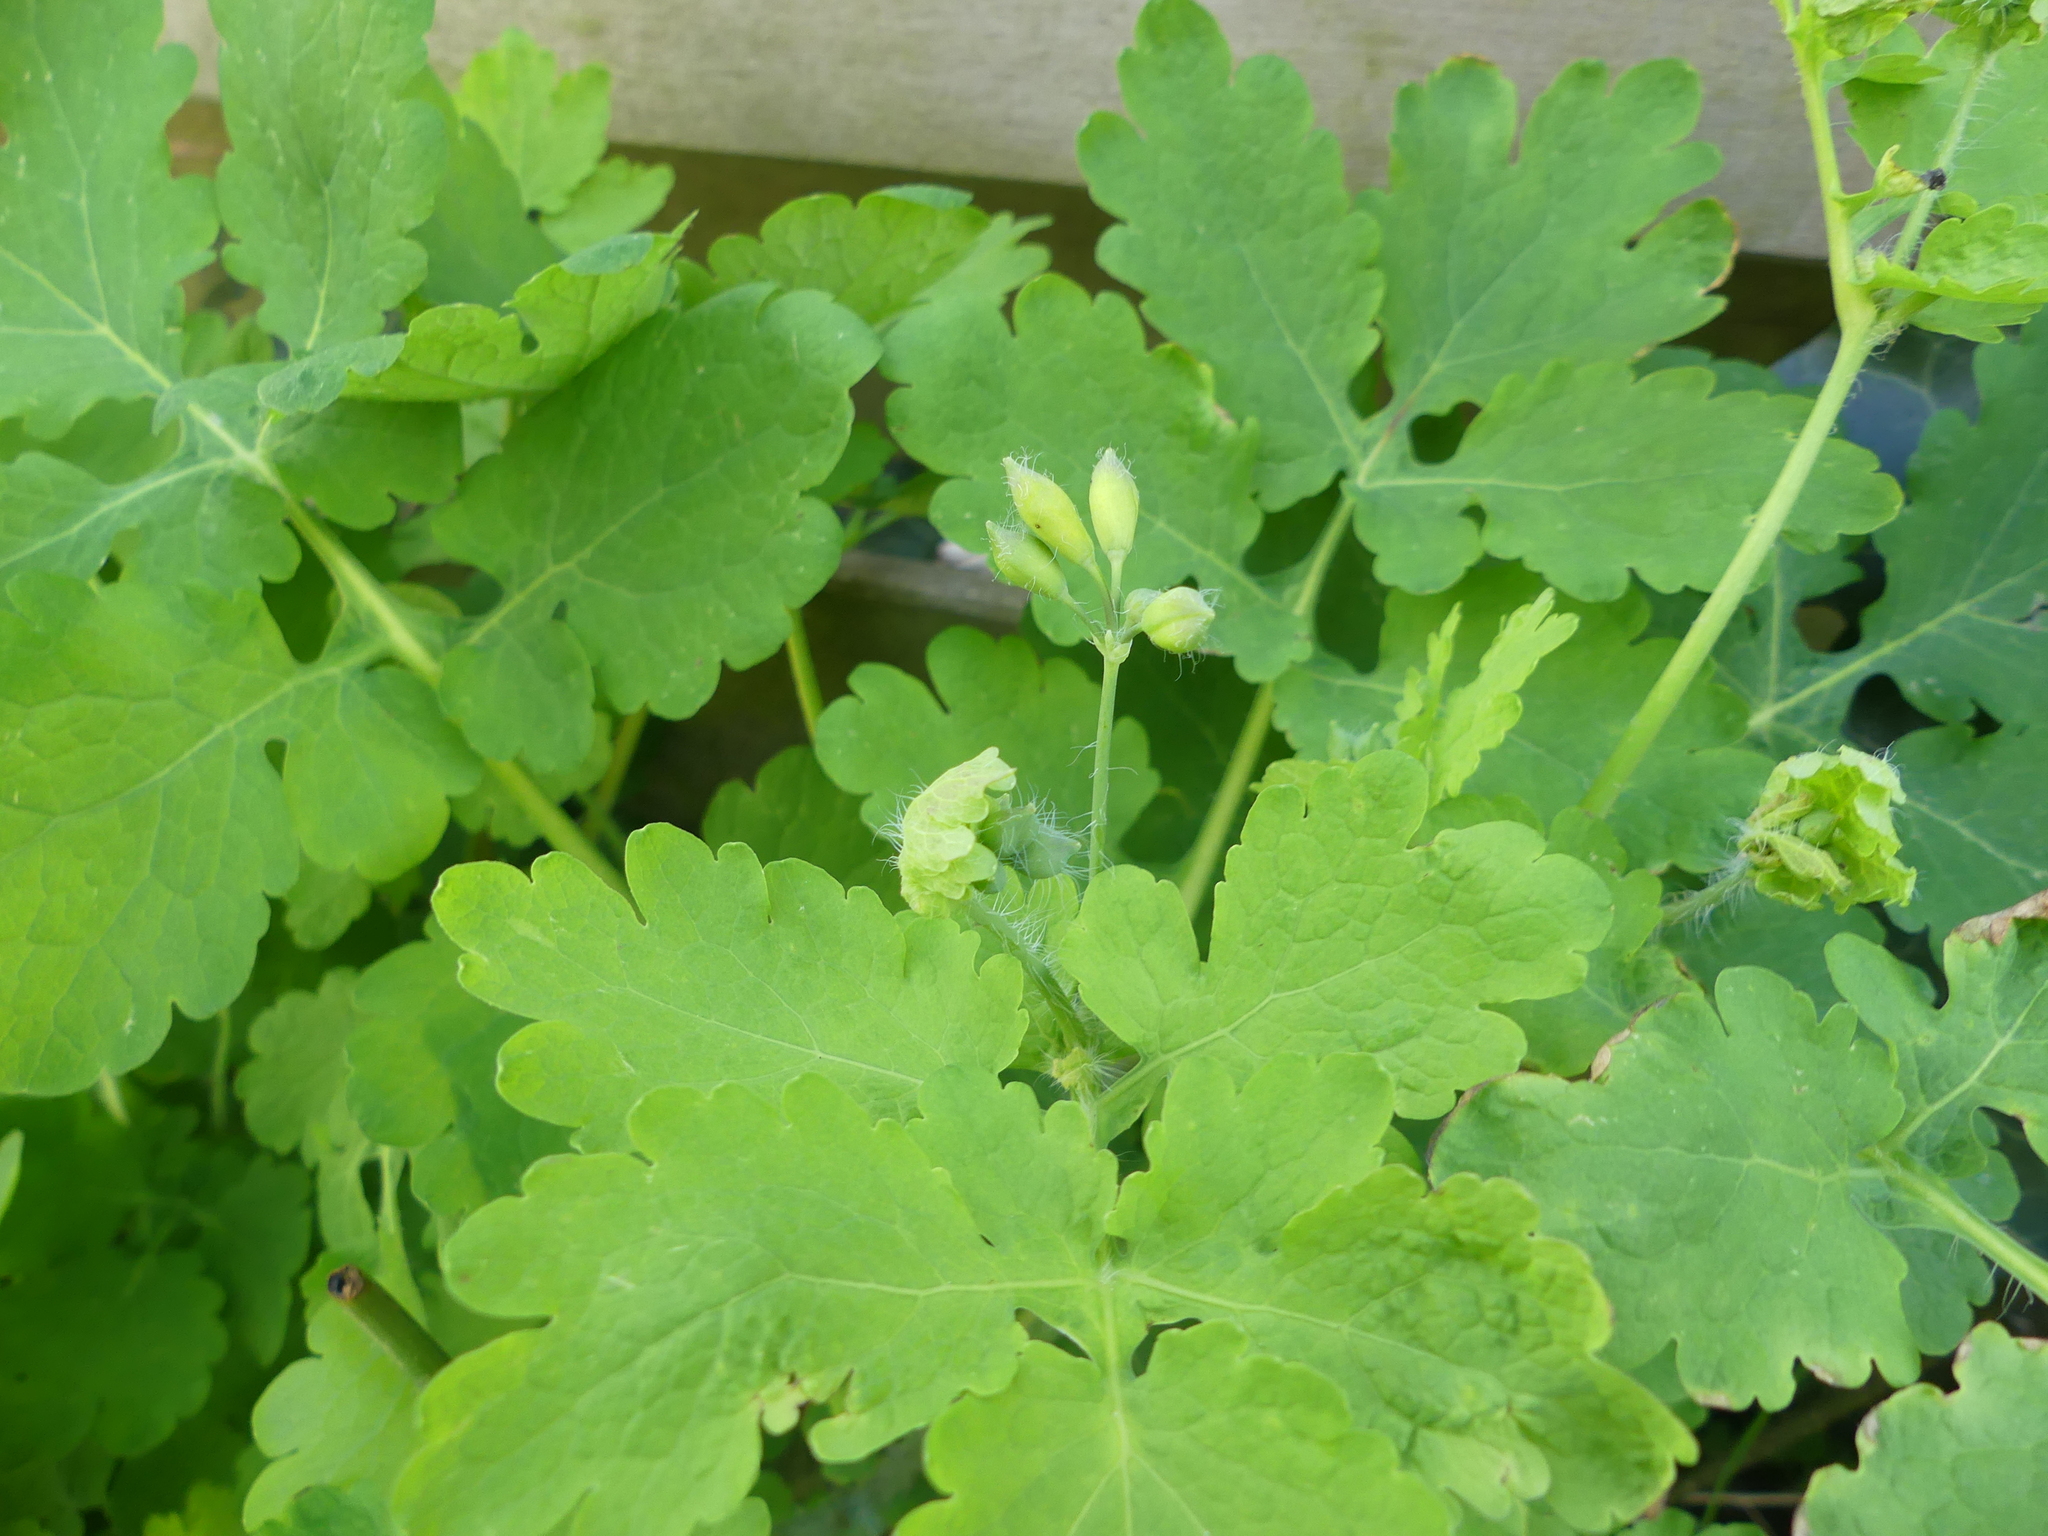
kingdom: Plantae
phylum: Tracheophyta
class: Magnoliopsida
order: Ranunculales
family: Papaveraceae
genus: Chelidonium
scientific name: Chelidonium majus
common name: Greater celandine
